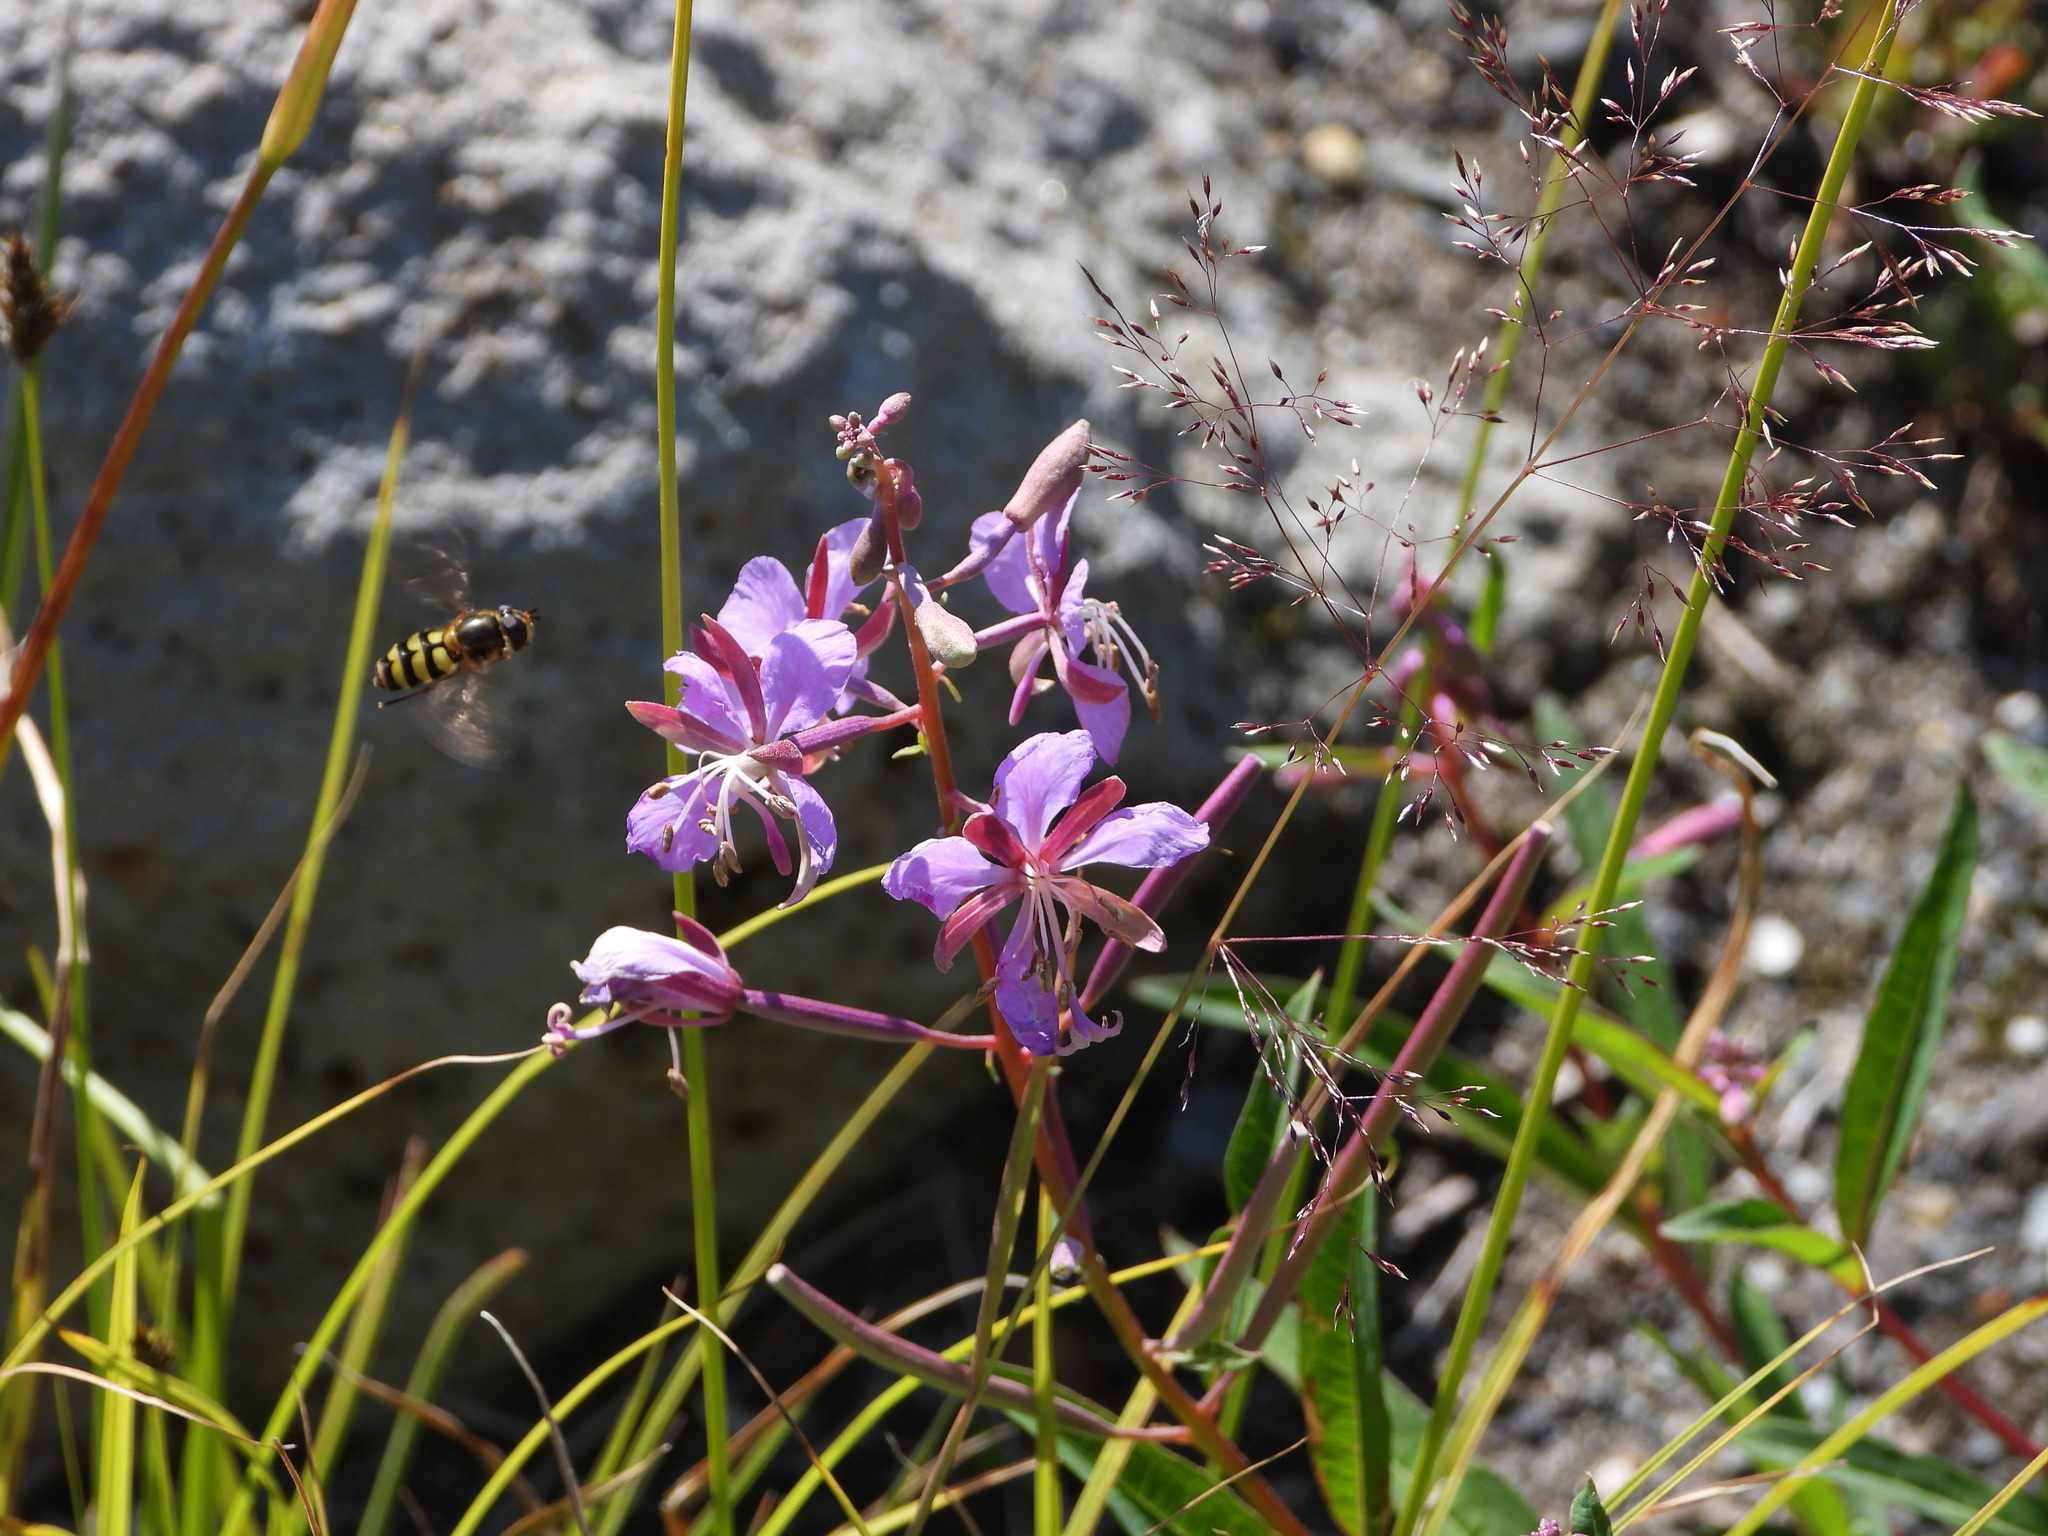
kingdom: Animalia
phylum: Arthropoda
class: Insecta
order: Diptera
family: Syrphidae
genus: Blera
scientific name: Blera scitula
